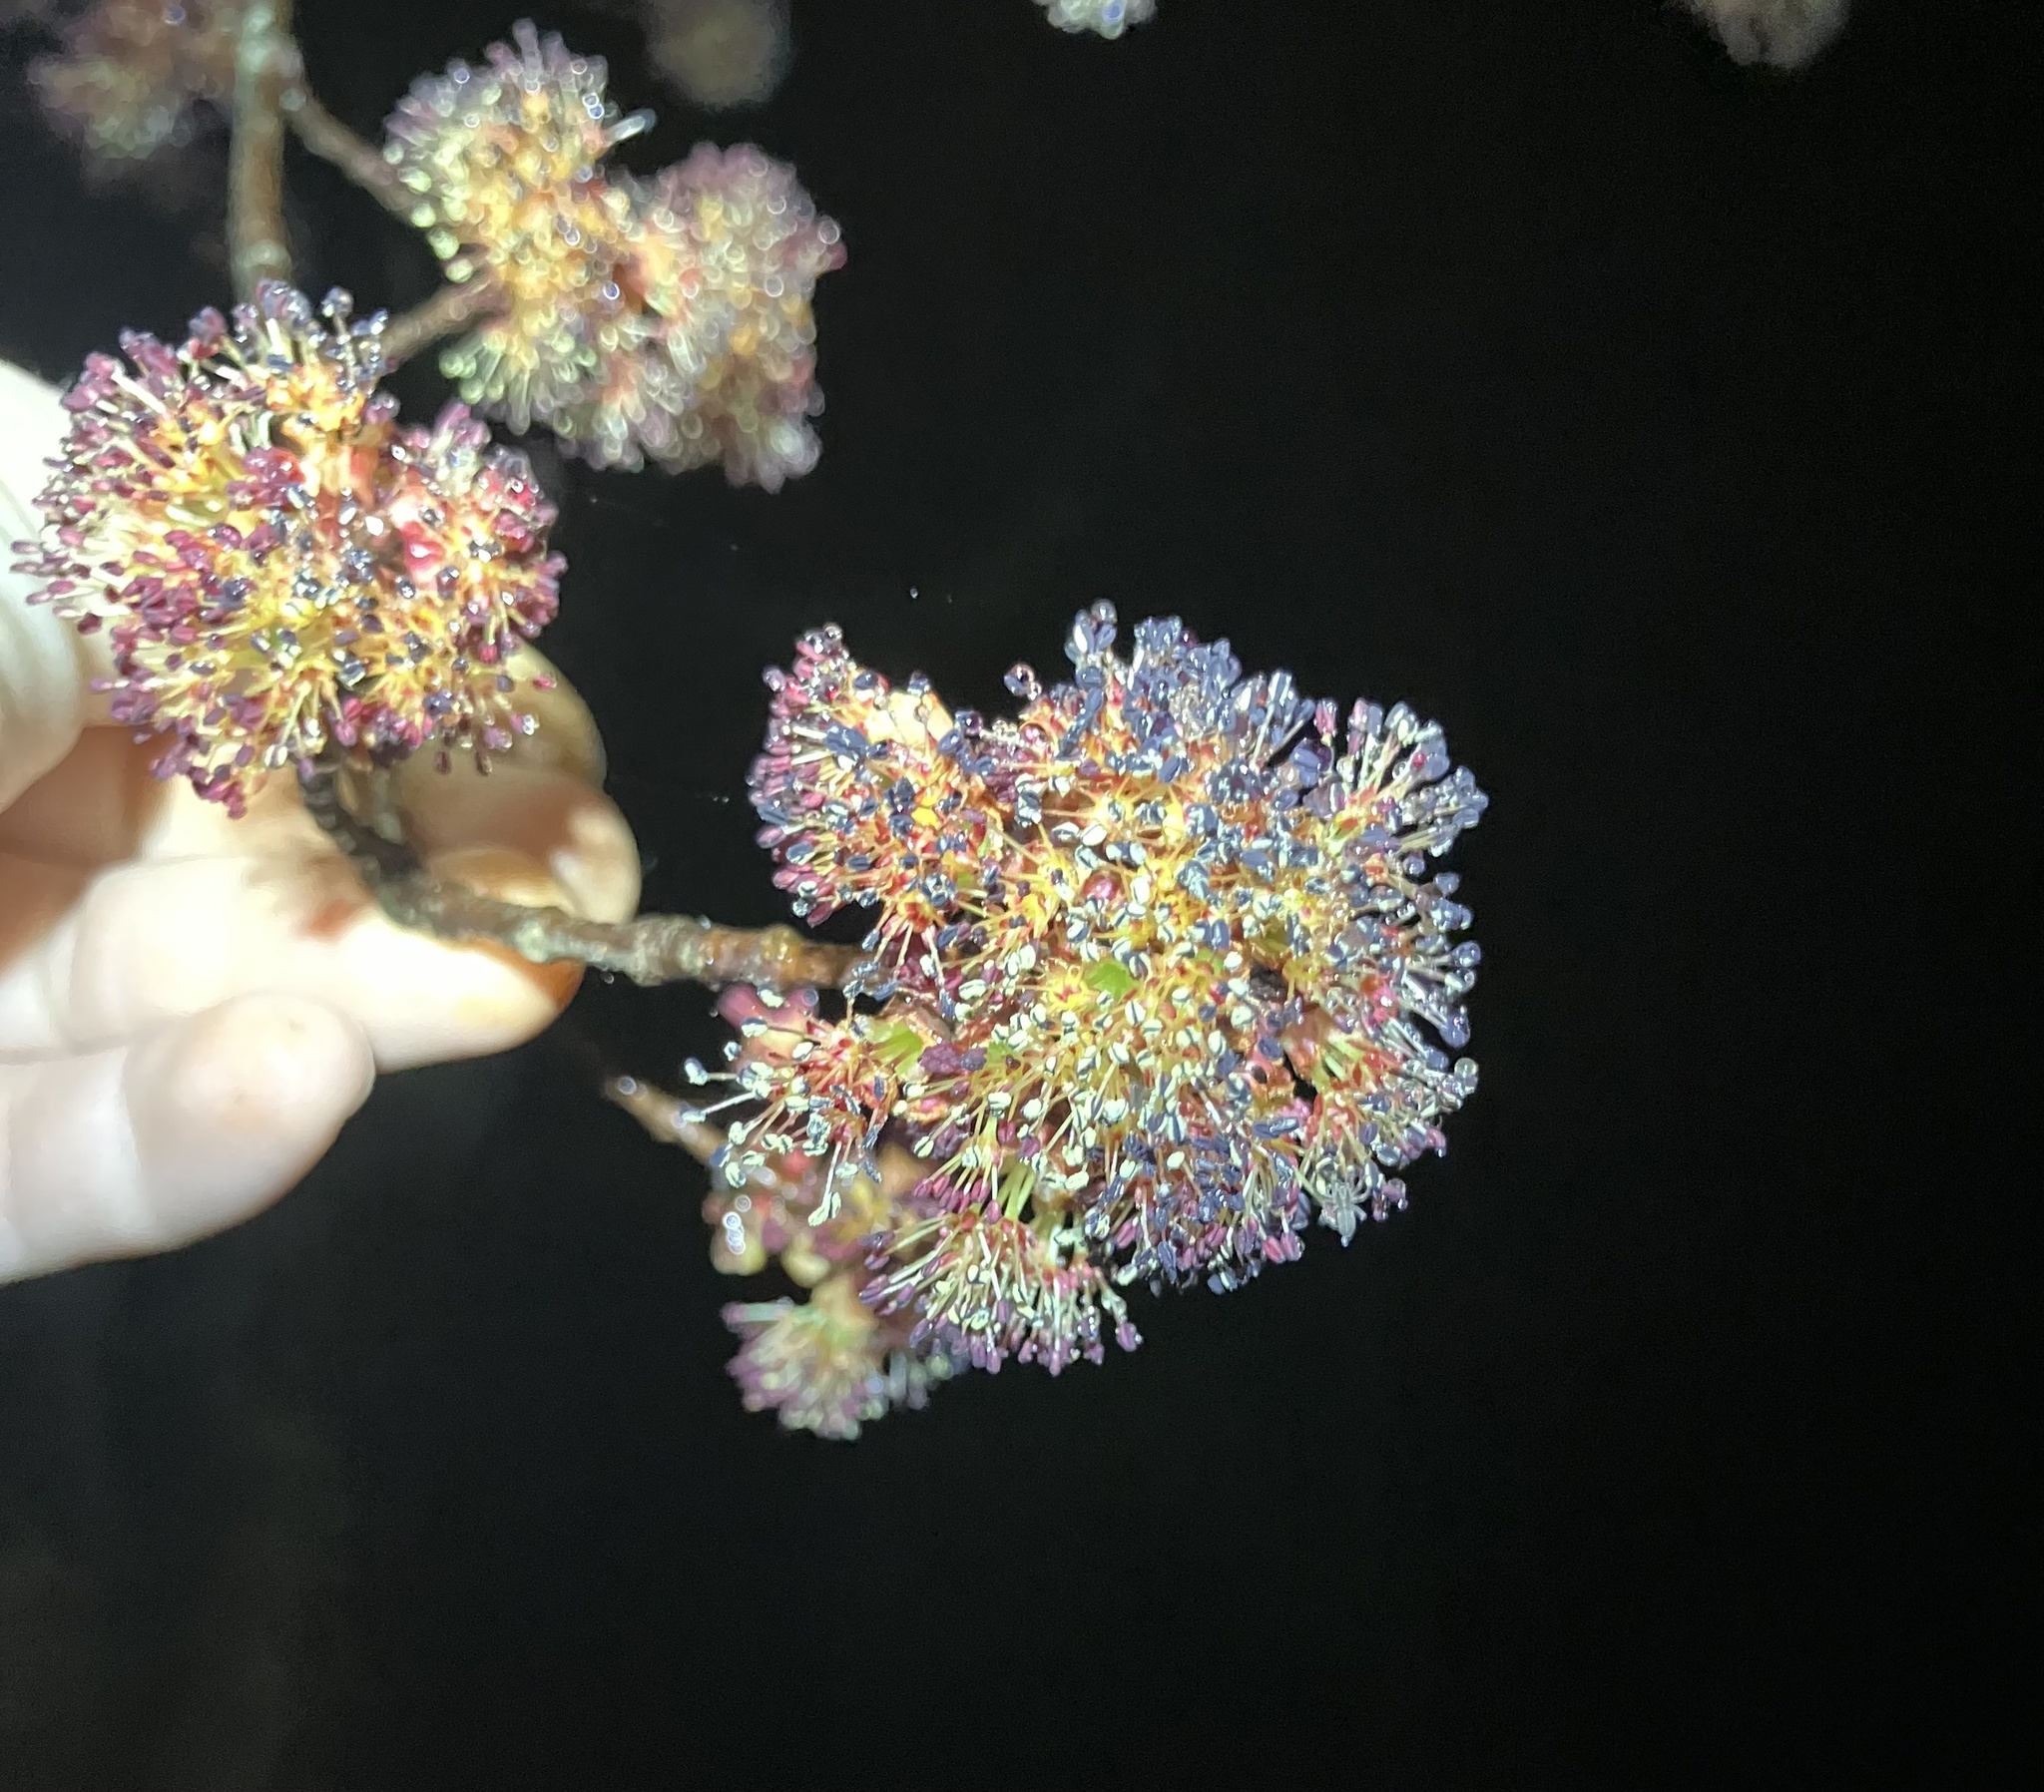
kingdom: Plantae
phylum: Tracheophyta
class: Magnoliopsida
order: Sapindales
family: Sapindaceae
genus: Acer
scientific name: Acer rubrum
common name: Red maple
